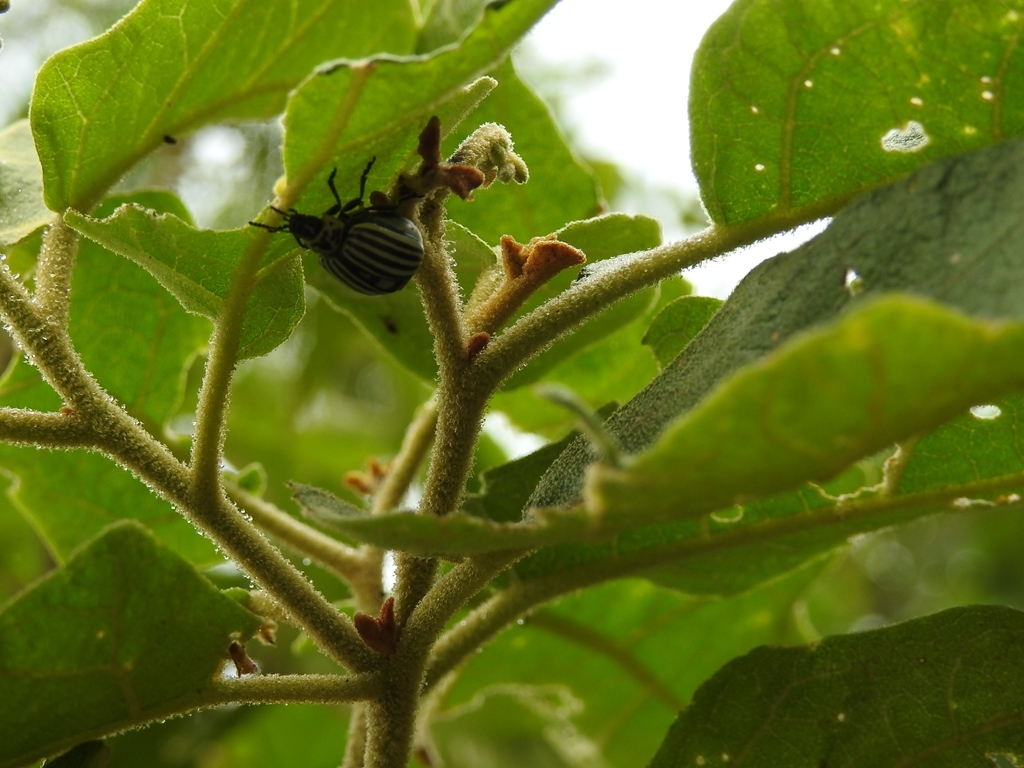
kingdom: Animalia
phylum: Arthropoda
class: Insecta
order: Coleoptera
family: Chrysomelidae
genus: Leptinotarsa
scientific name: Leptinotarsa
